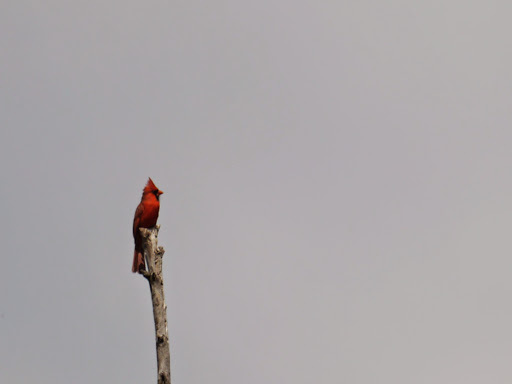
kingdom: Animalia
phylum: Chordata
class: Aves
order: Passeriformes
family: Cardinalidae
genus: Cardinalis
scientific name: Cardinalis cardinalis
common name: Northern cardinal
